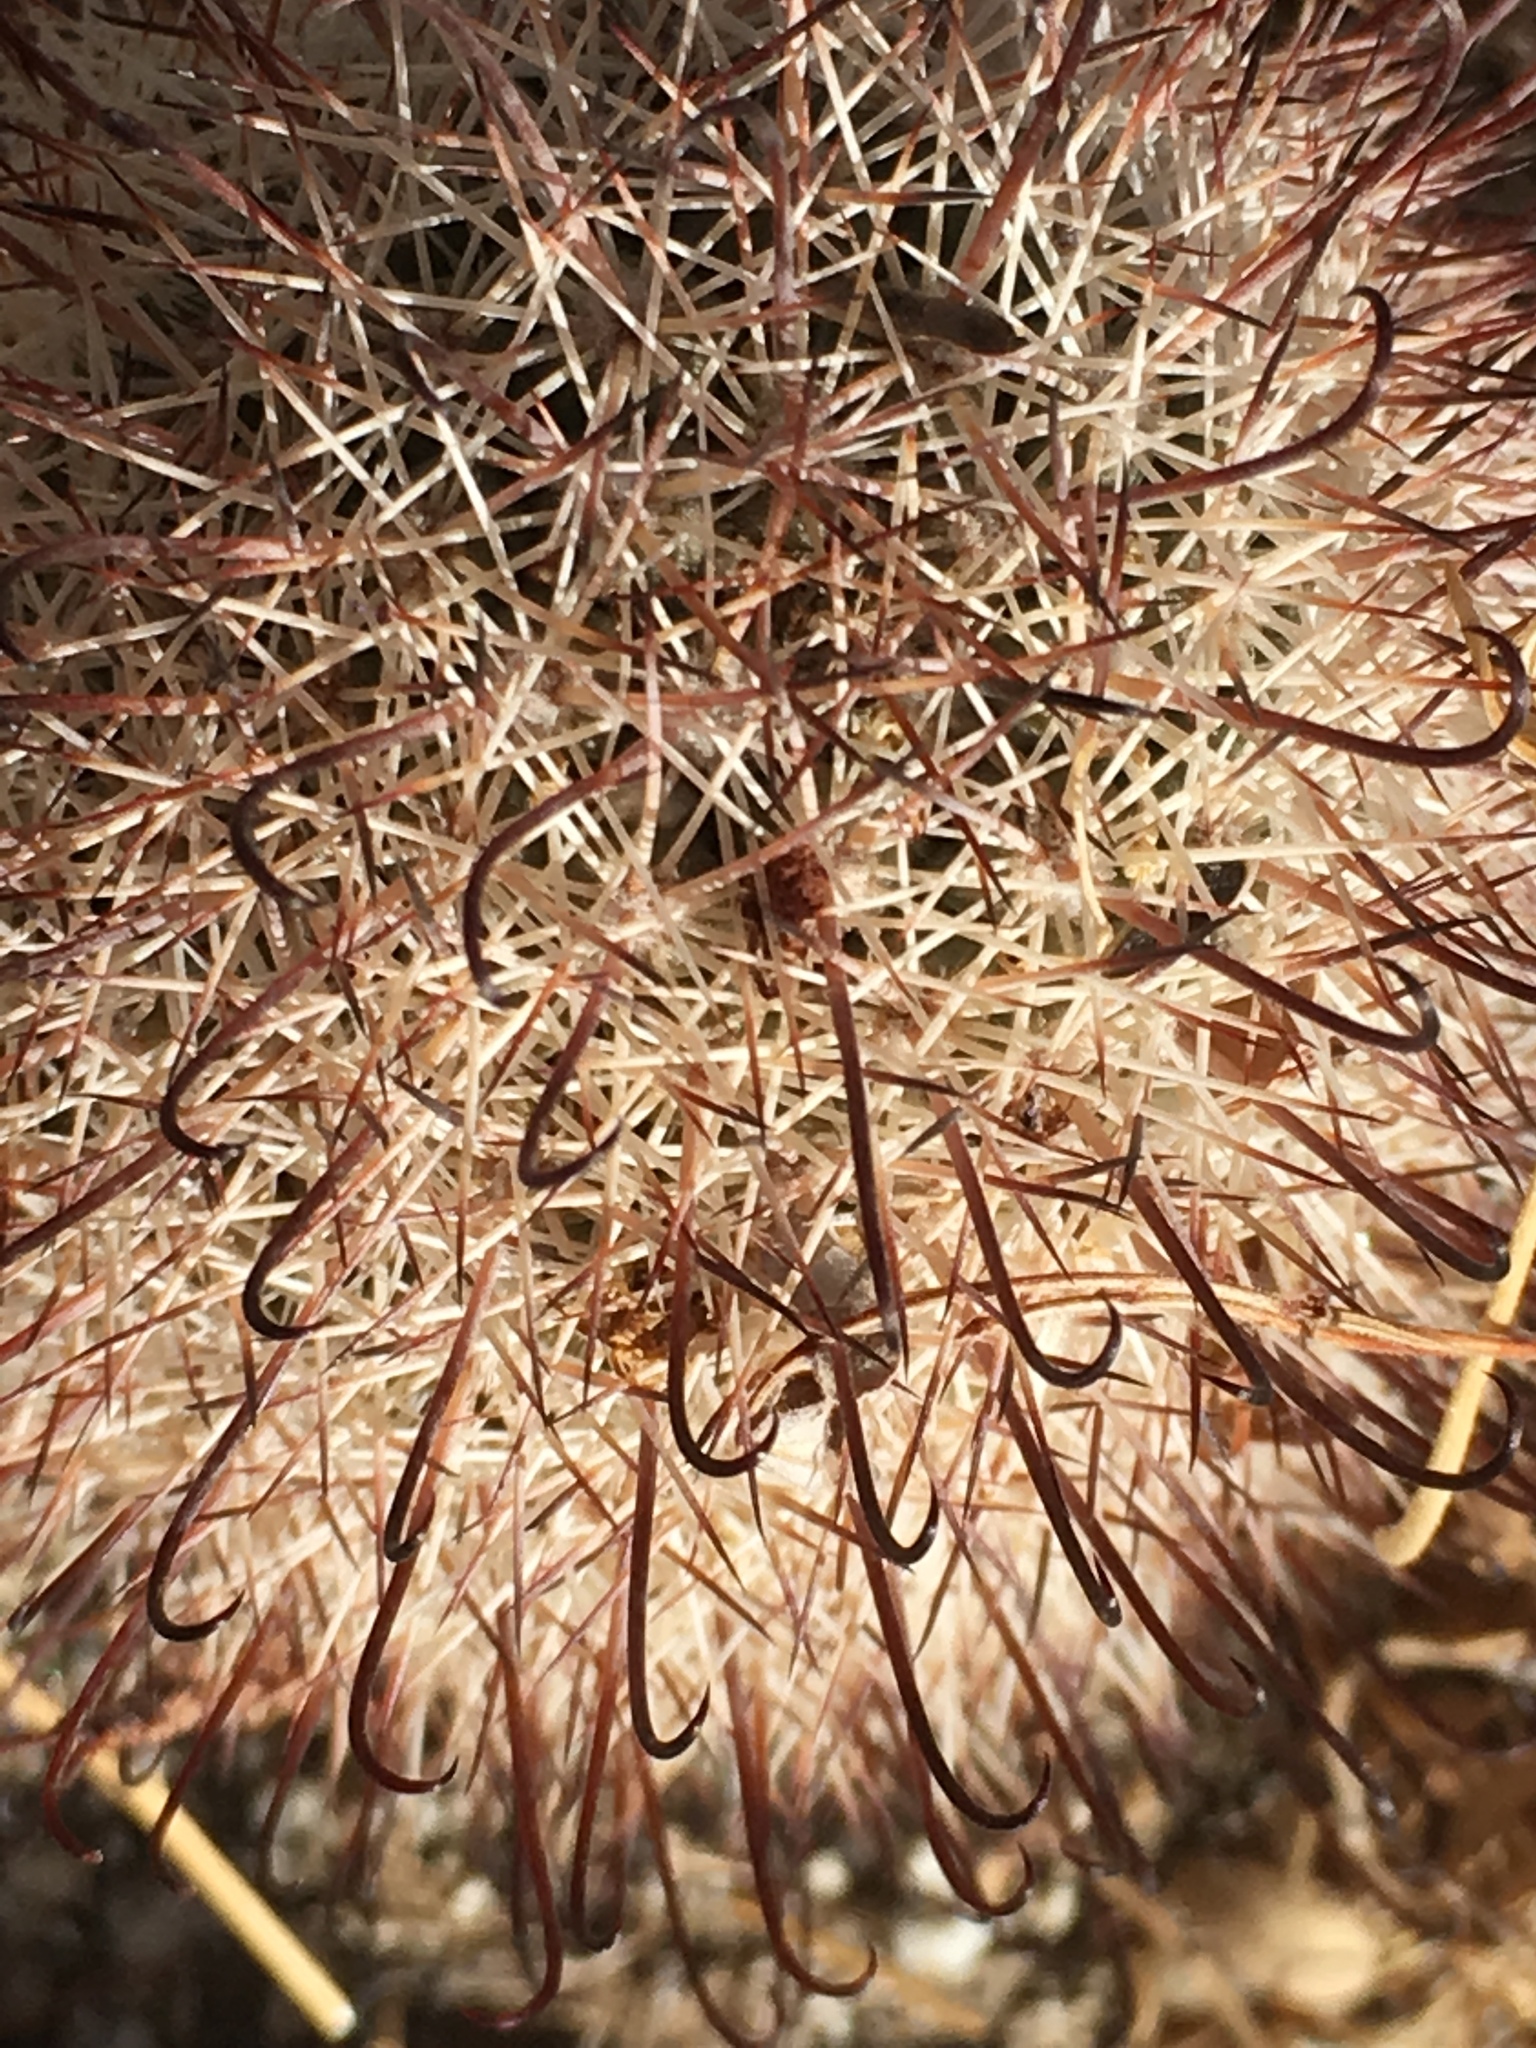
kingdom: Plantae
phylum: Tracheophyta
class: Magnoliopsida
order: Caryophyllales
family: Cactaceae
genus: Cochemiea
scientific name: Cochemiea dioica
